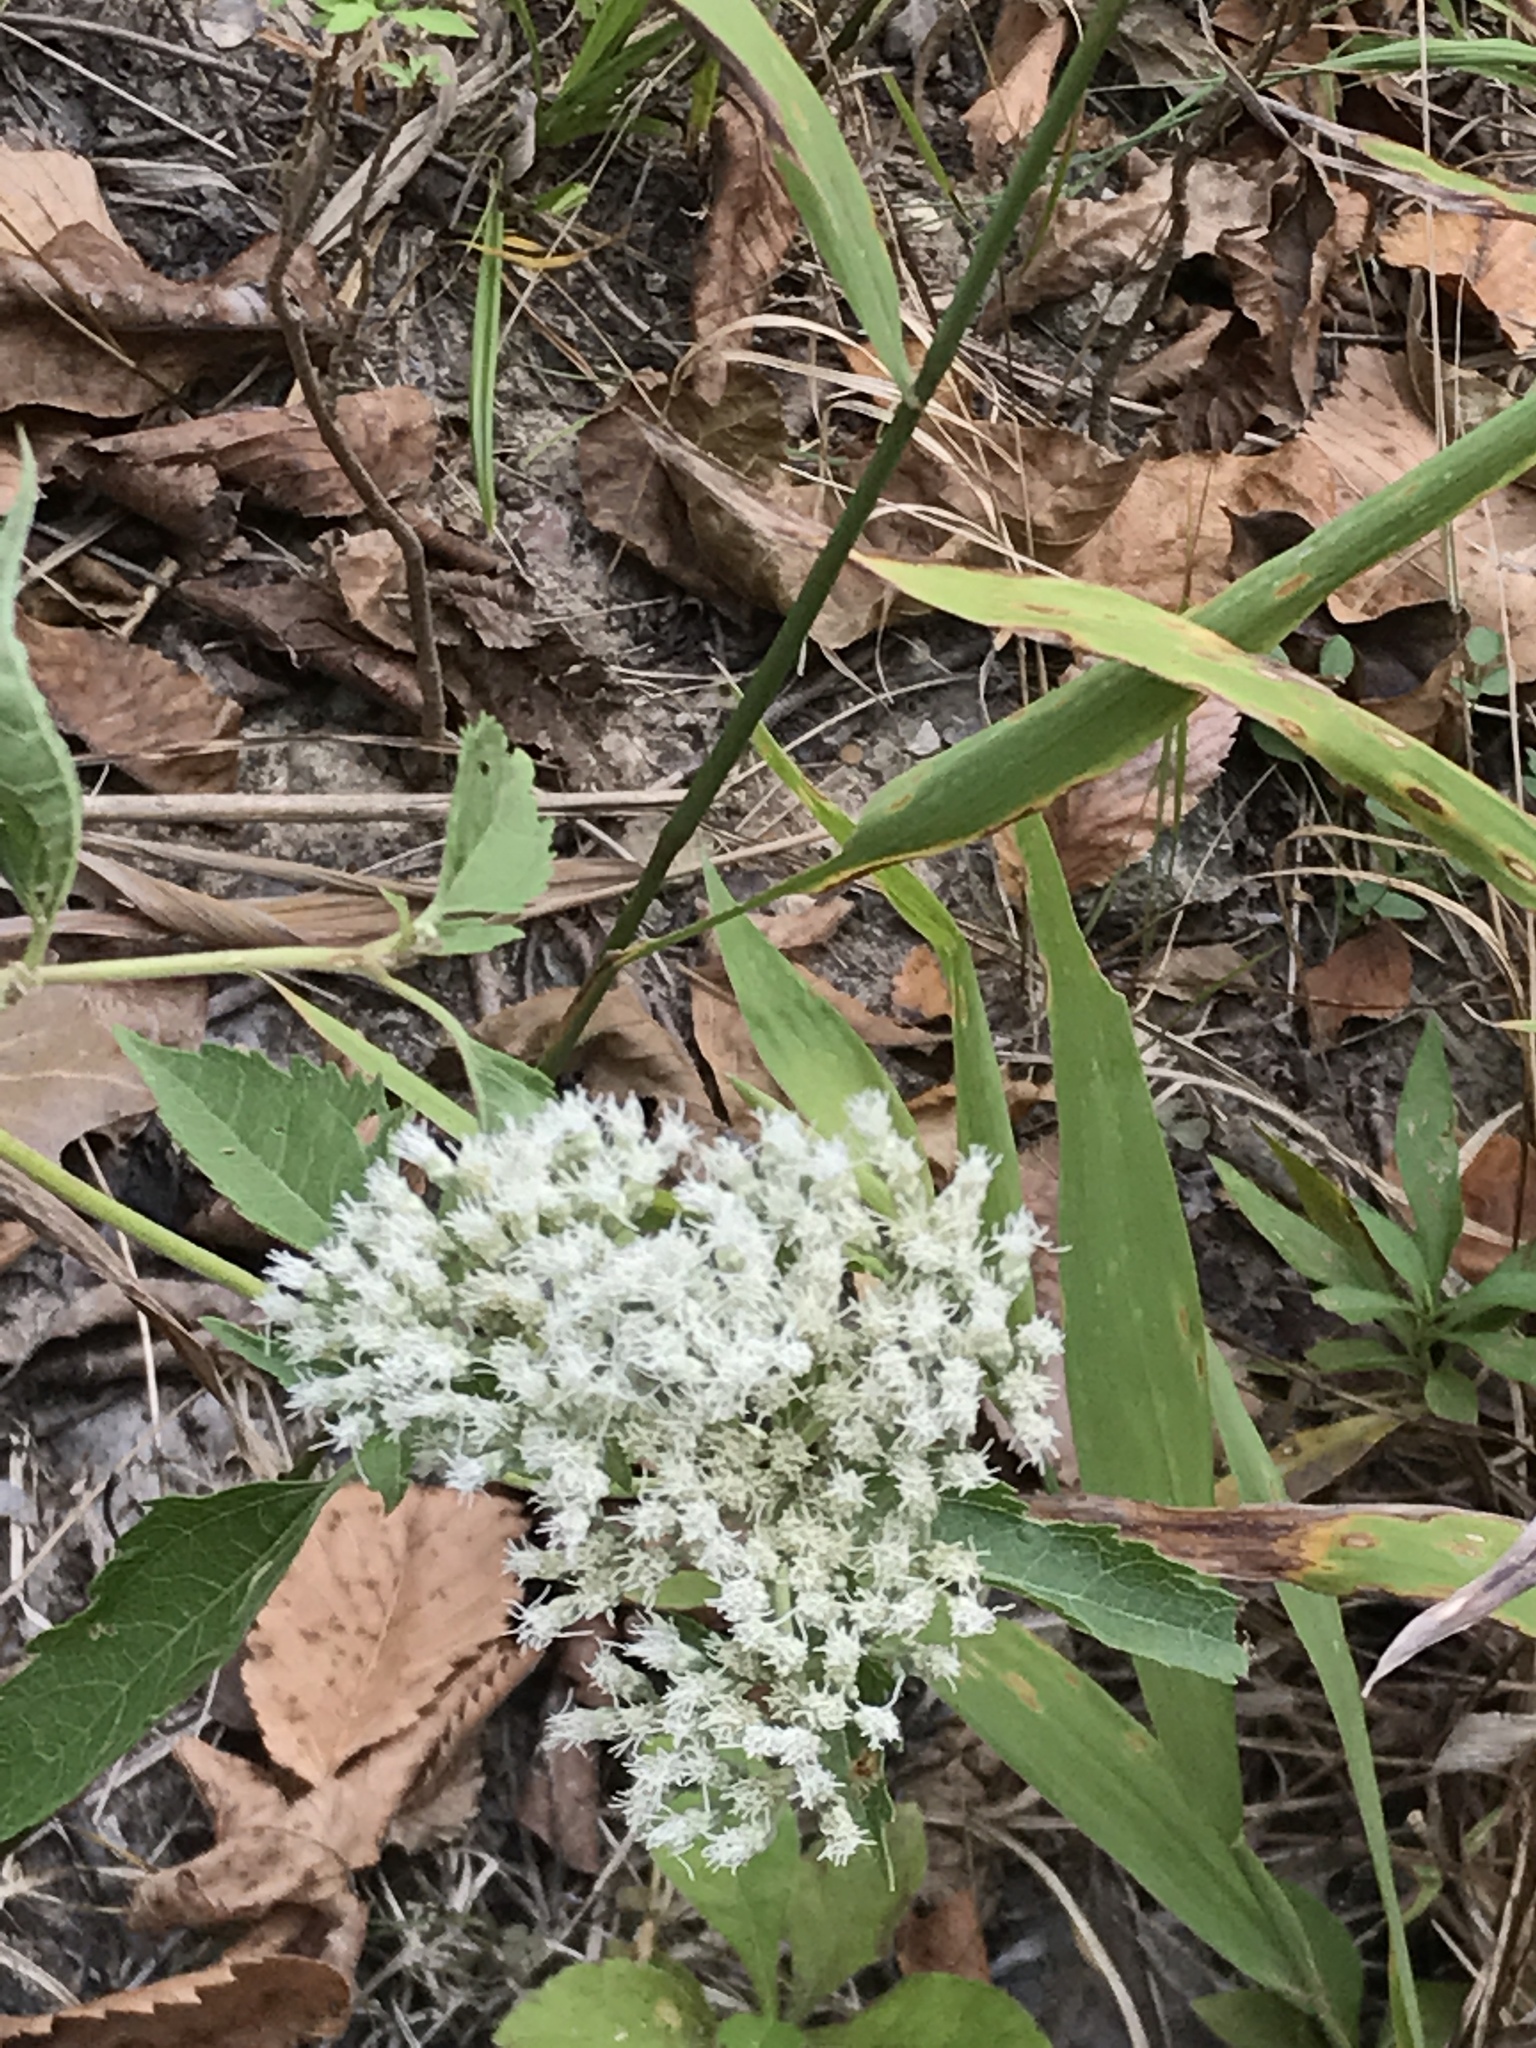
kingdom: Plantae
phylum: Tracheophyta
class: Magnoliopsida
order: Asterales
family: Asteraceae
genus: Eupatorium
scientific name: Eupatorium serotinum
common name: Late boneset
